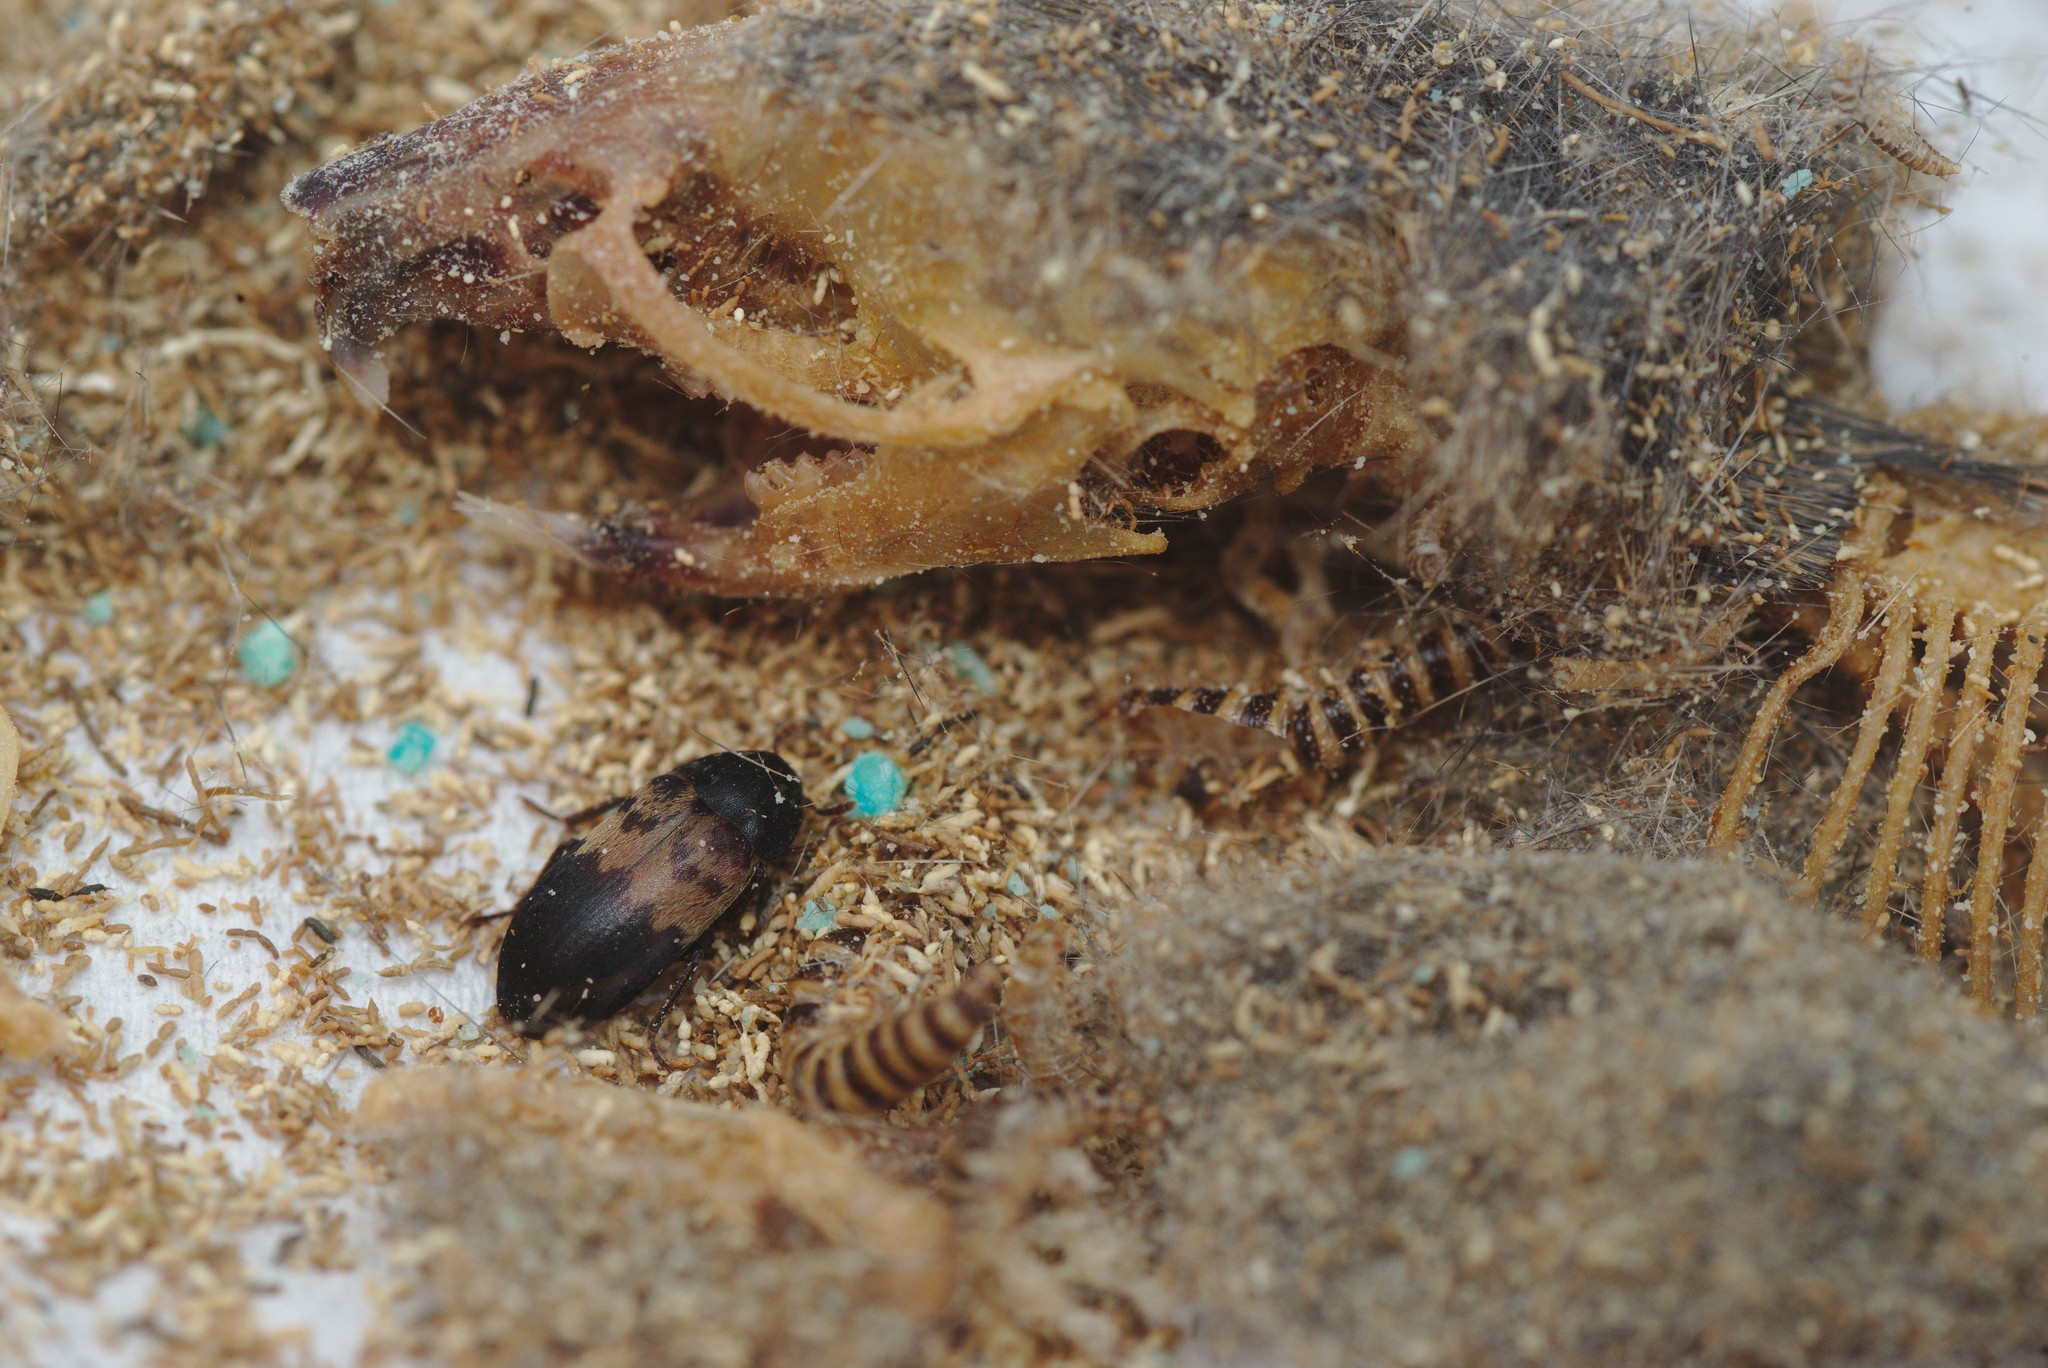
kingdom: Animalia
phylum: Arthropoda
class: Insecta
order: Coleoptera
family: Dermestidae
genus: Dermestes
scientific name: Dermestes lardarius
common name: Larder beetle
